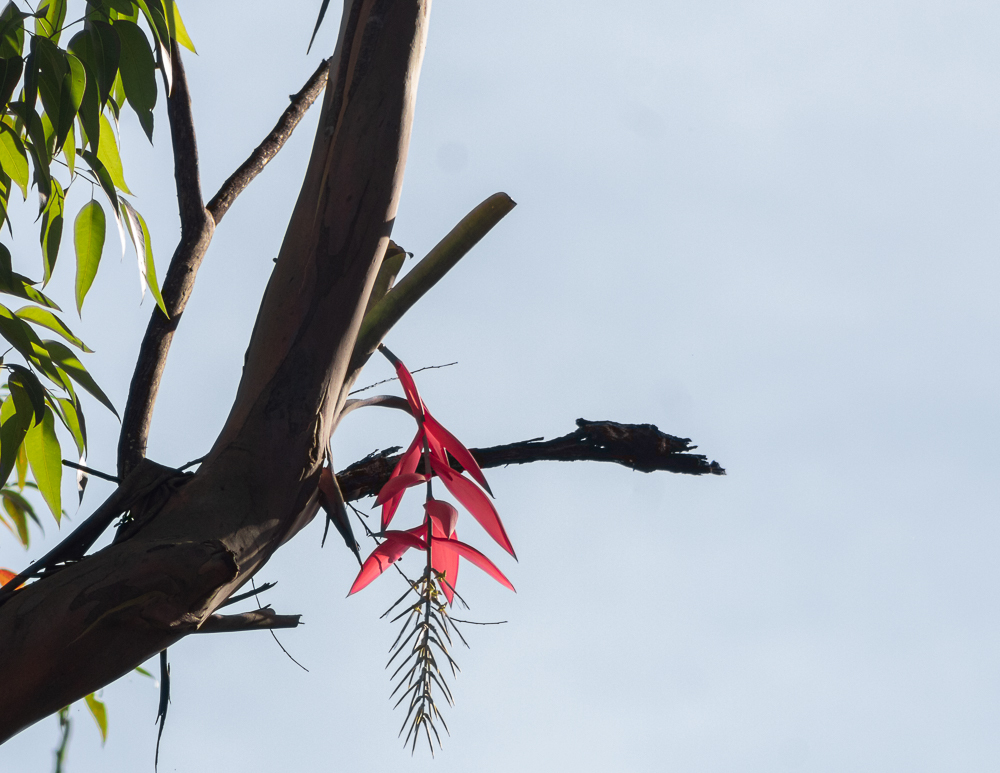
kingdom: Plantae
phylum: Tracheophyta
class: Liliopsida
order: Poales
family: Bromeliaceae
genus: Billbergia
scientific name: Billbergia porteana
